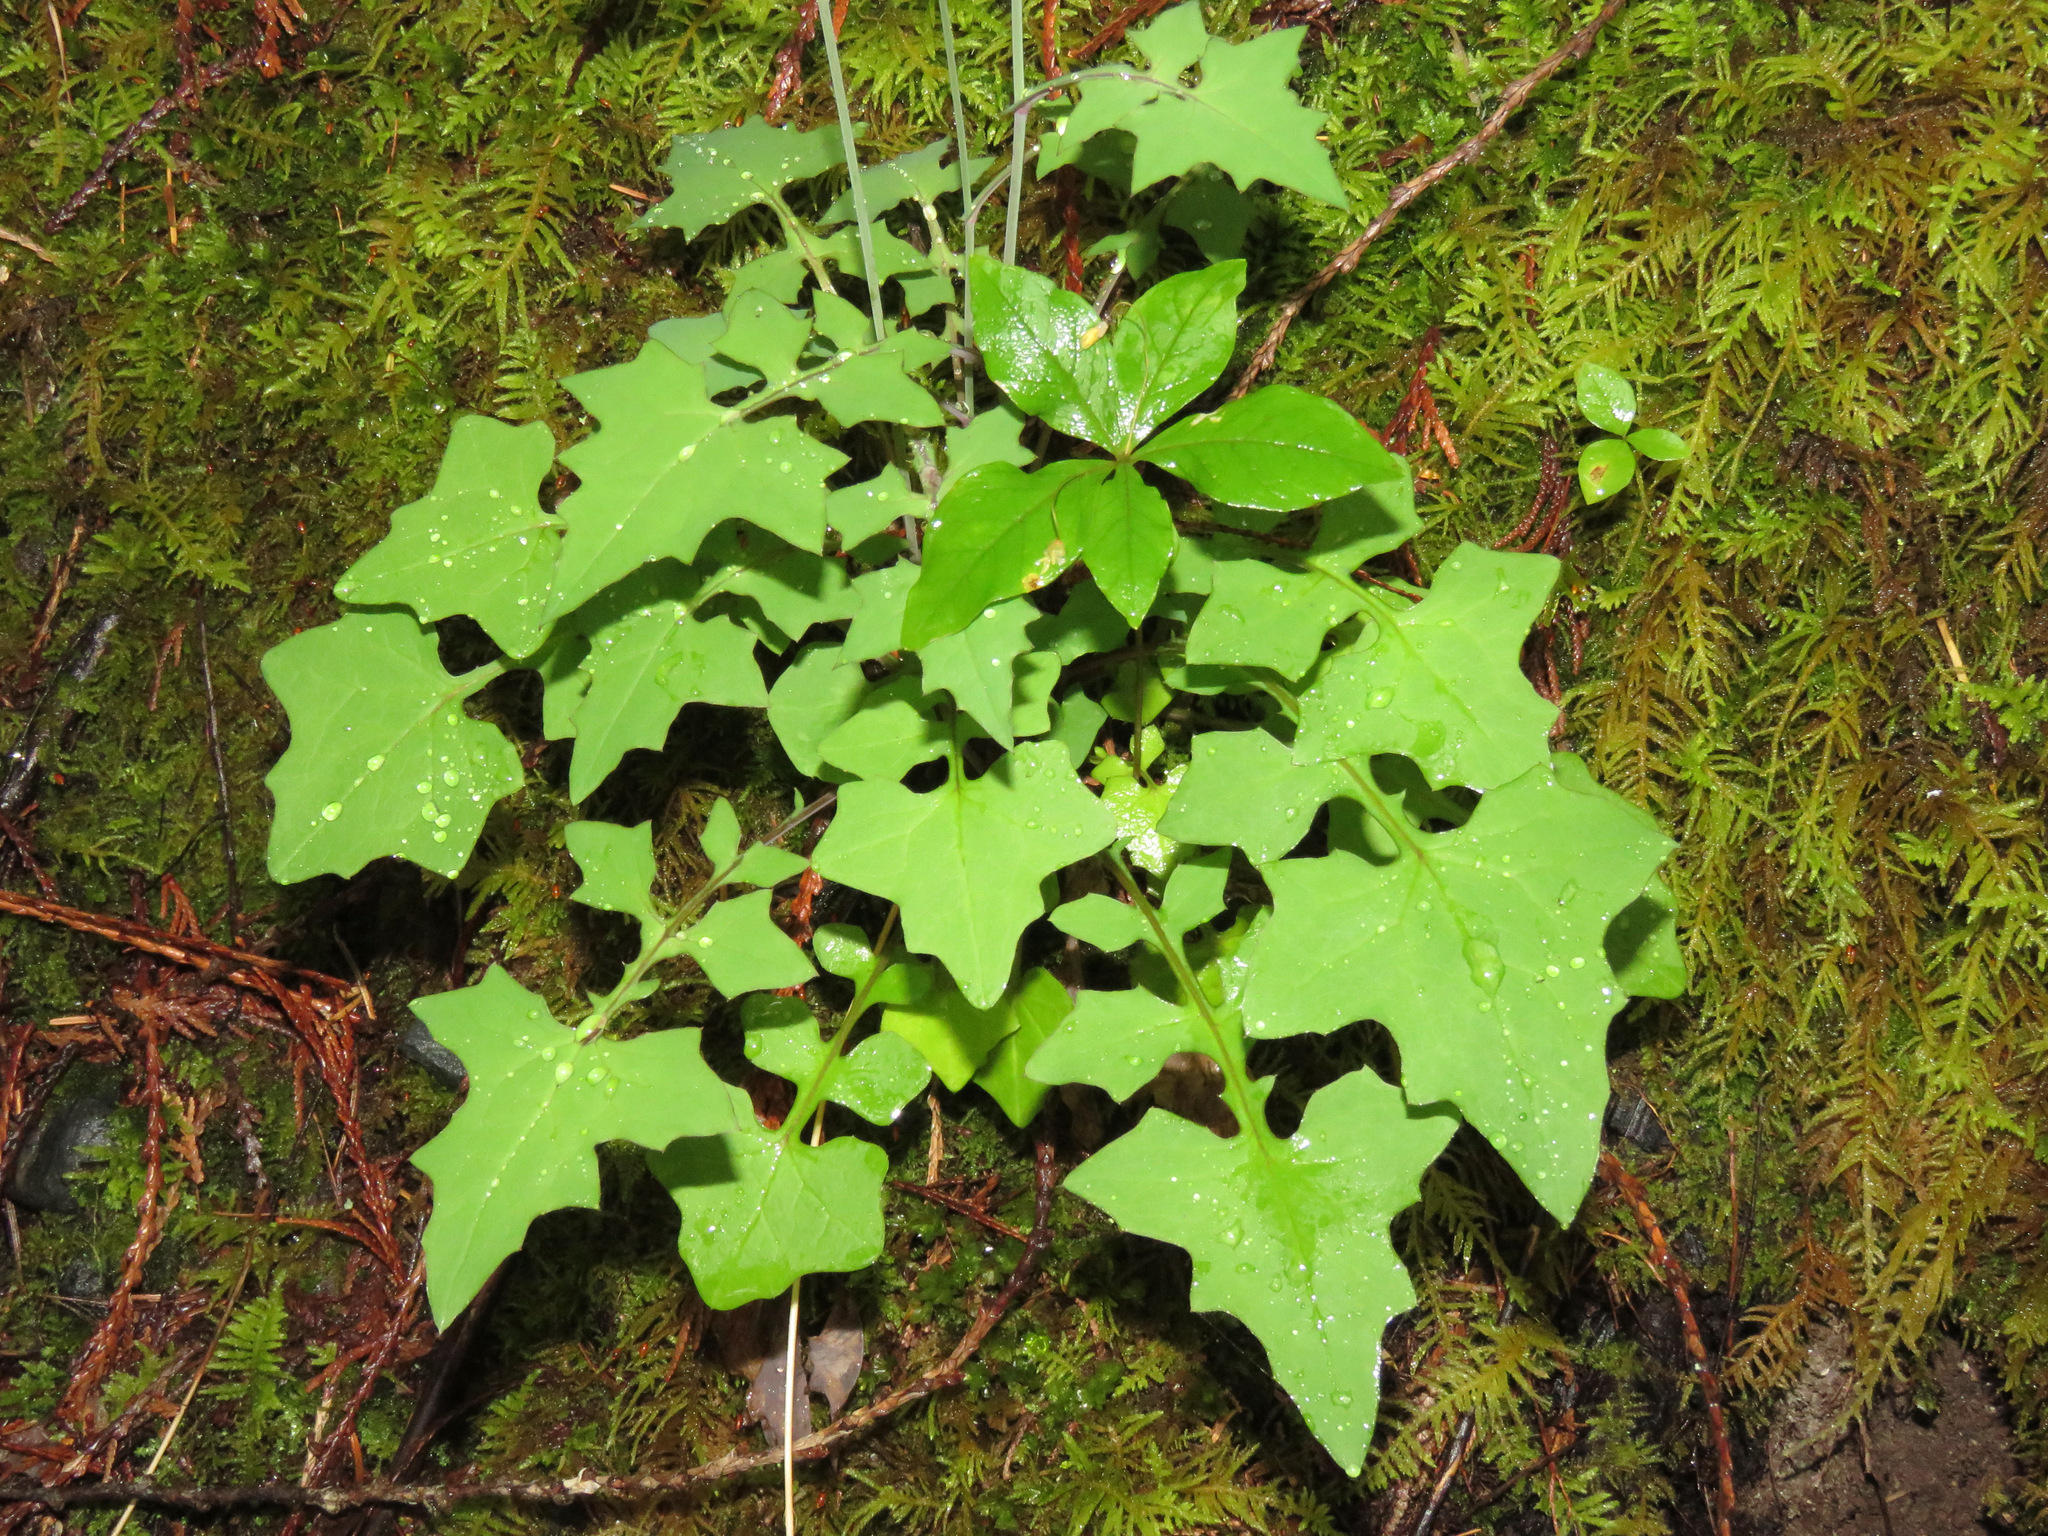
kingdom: Plantae
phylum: Tracheophyta
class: Magnoliopsida
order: Asterales
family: Asteraceae
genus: Mycelis
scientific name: Mycelis muralis
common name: Wall lettuce
